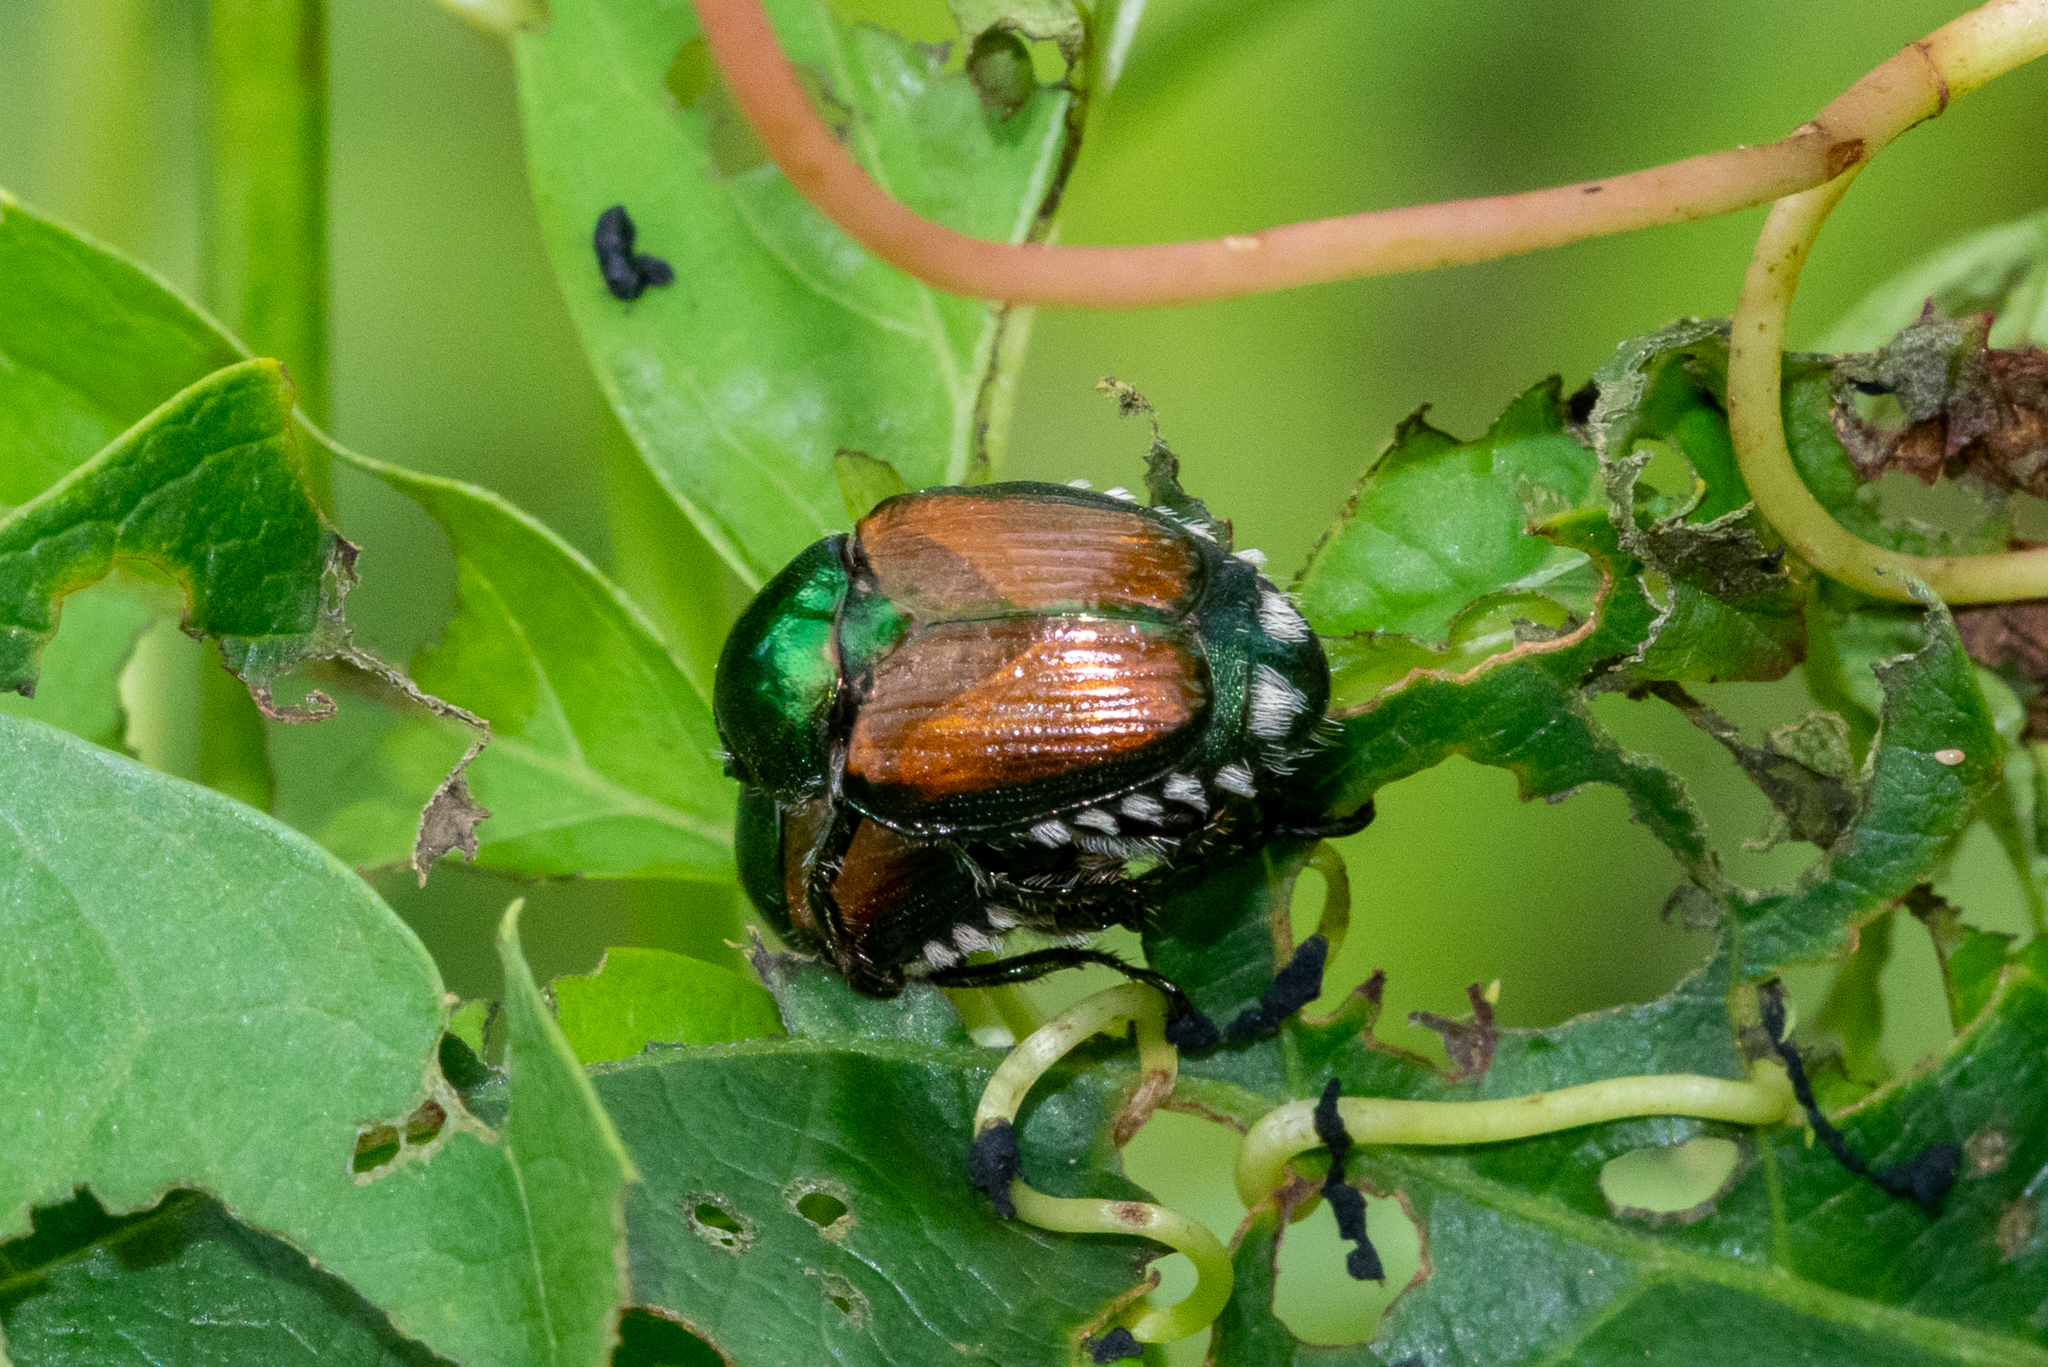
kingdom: Animalia
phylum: Arthropoda
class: Insecta
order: Coleoptera
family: Scarabaeidae
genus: Popillia
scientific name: Popillia japonica
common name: Japanese beetle
